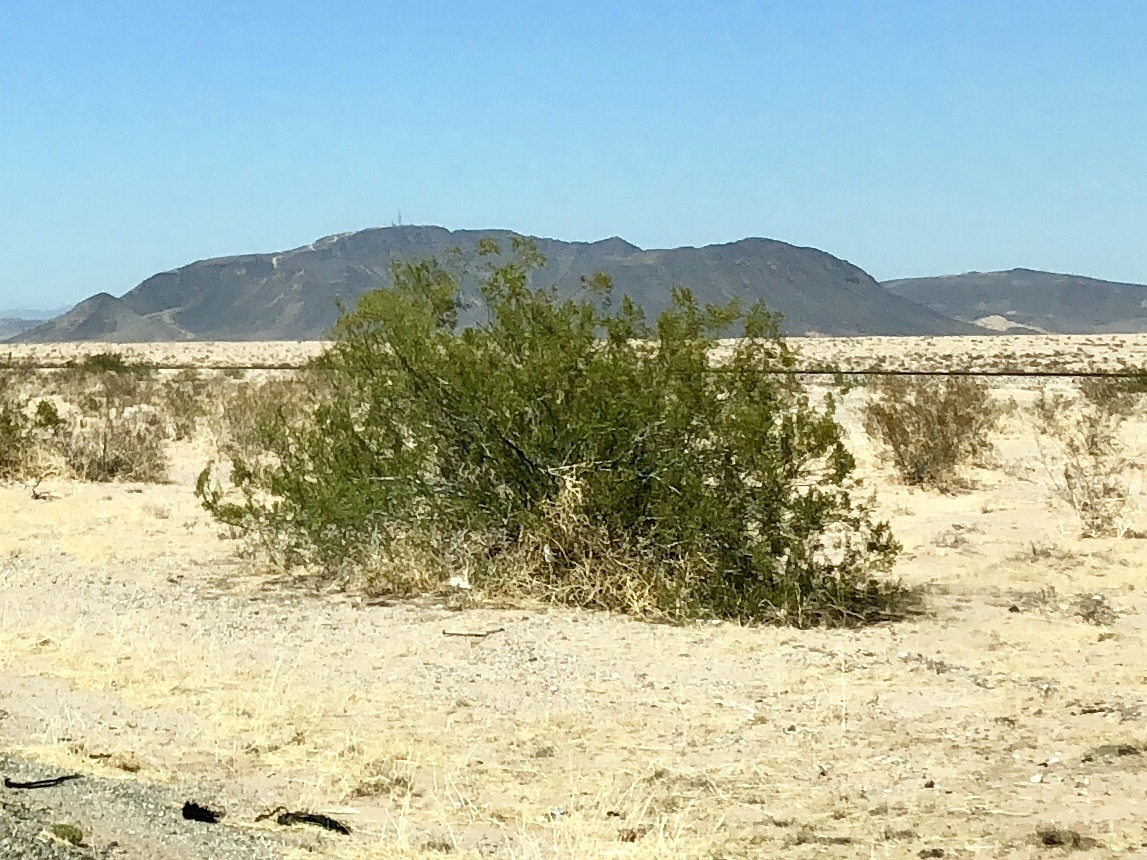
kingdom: Plantae
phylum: Tracheophyta
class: Magnoliopsida
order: Zygophyllales
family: Zygophyllaceae
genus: Larrea
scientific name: Larrea tridentata
